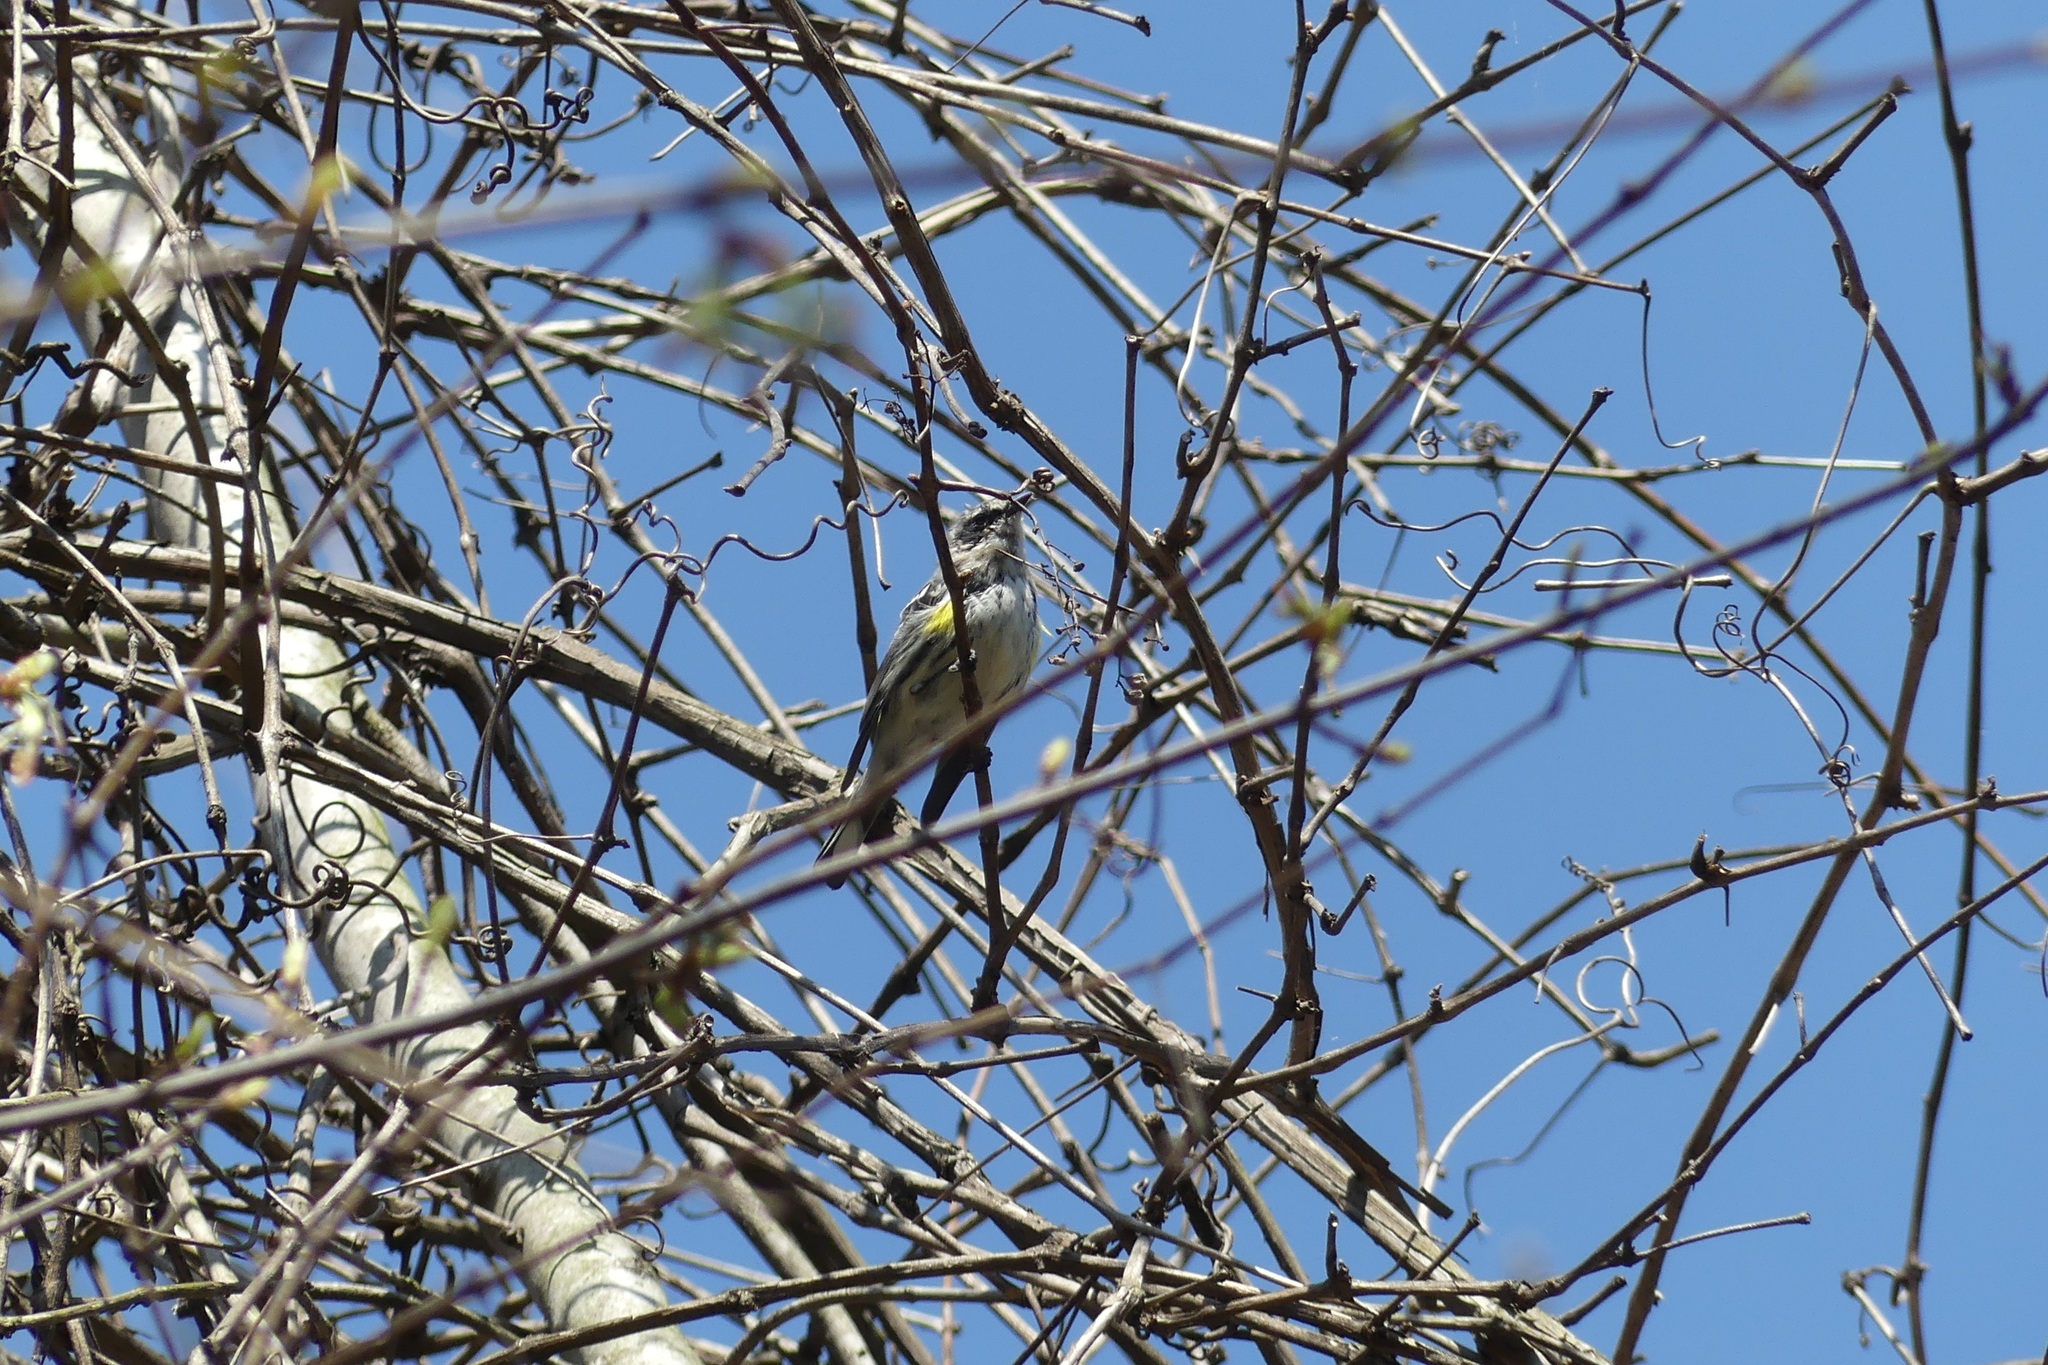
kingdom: Animalia
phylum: Chordata
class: Aves
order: Passeriformes
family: Parulidae
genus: Setophaga
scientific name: Setophaga coronata
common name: Myrtle warbler
